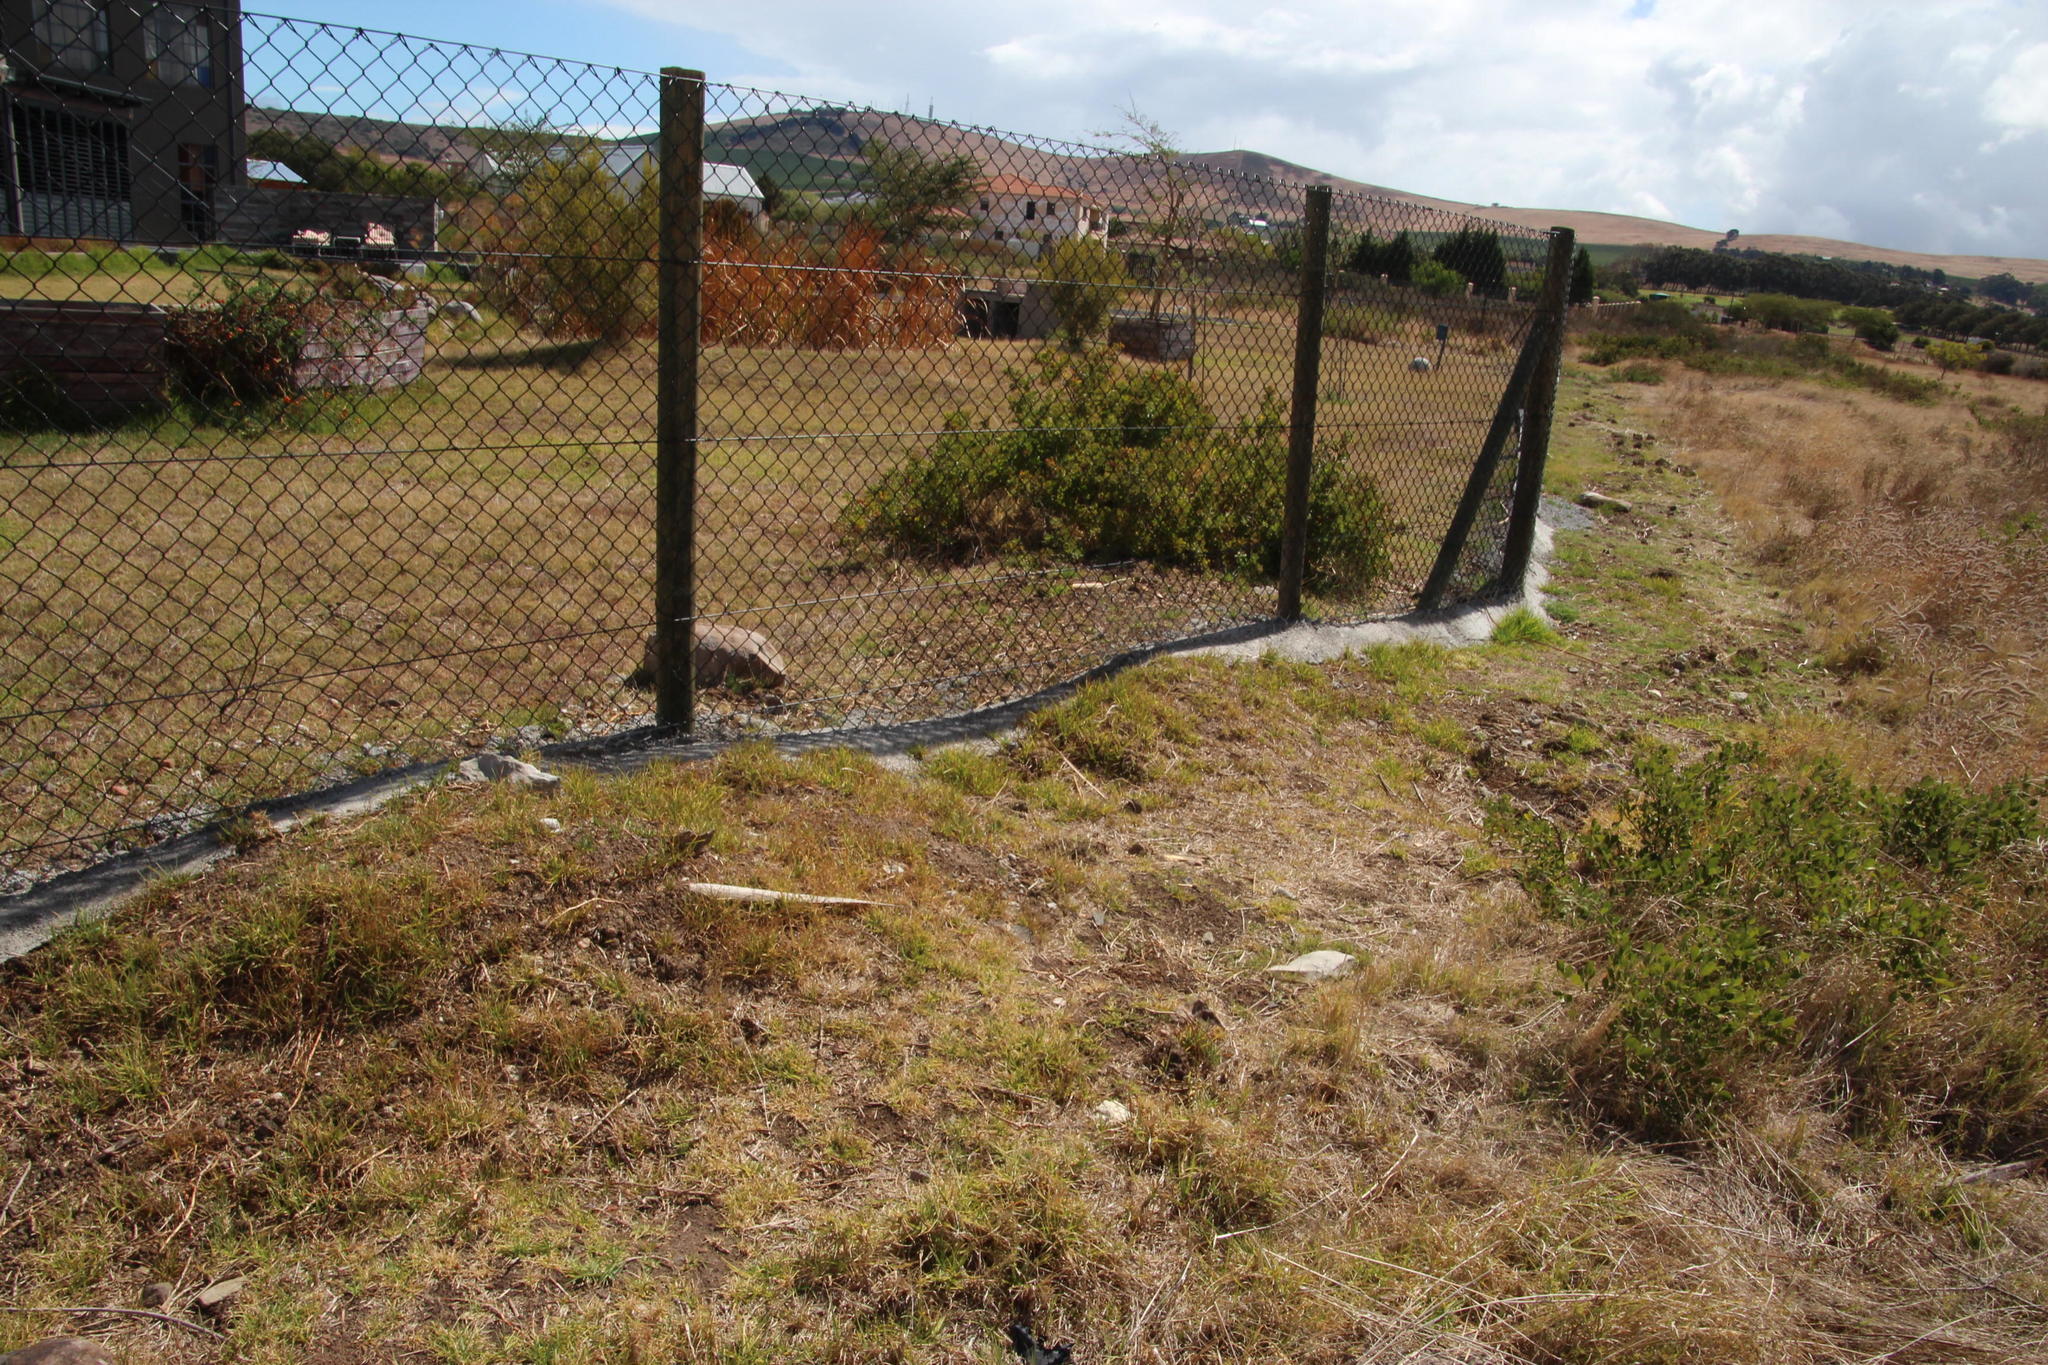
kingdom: Plantae
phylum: Tracheophyta
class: Liliopsida
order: Poales
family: Poaceae
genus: Cenchrus
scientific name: Cenchrus clandestinus
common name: Kikuyugrass
